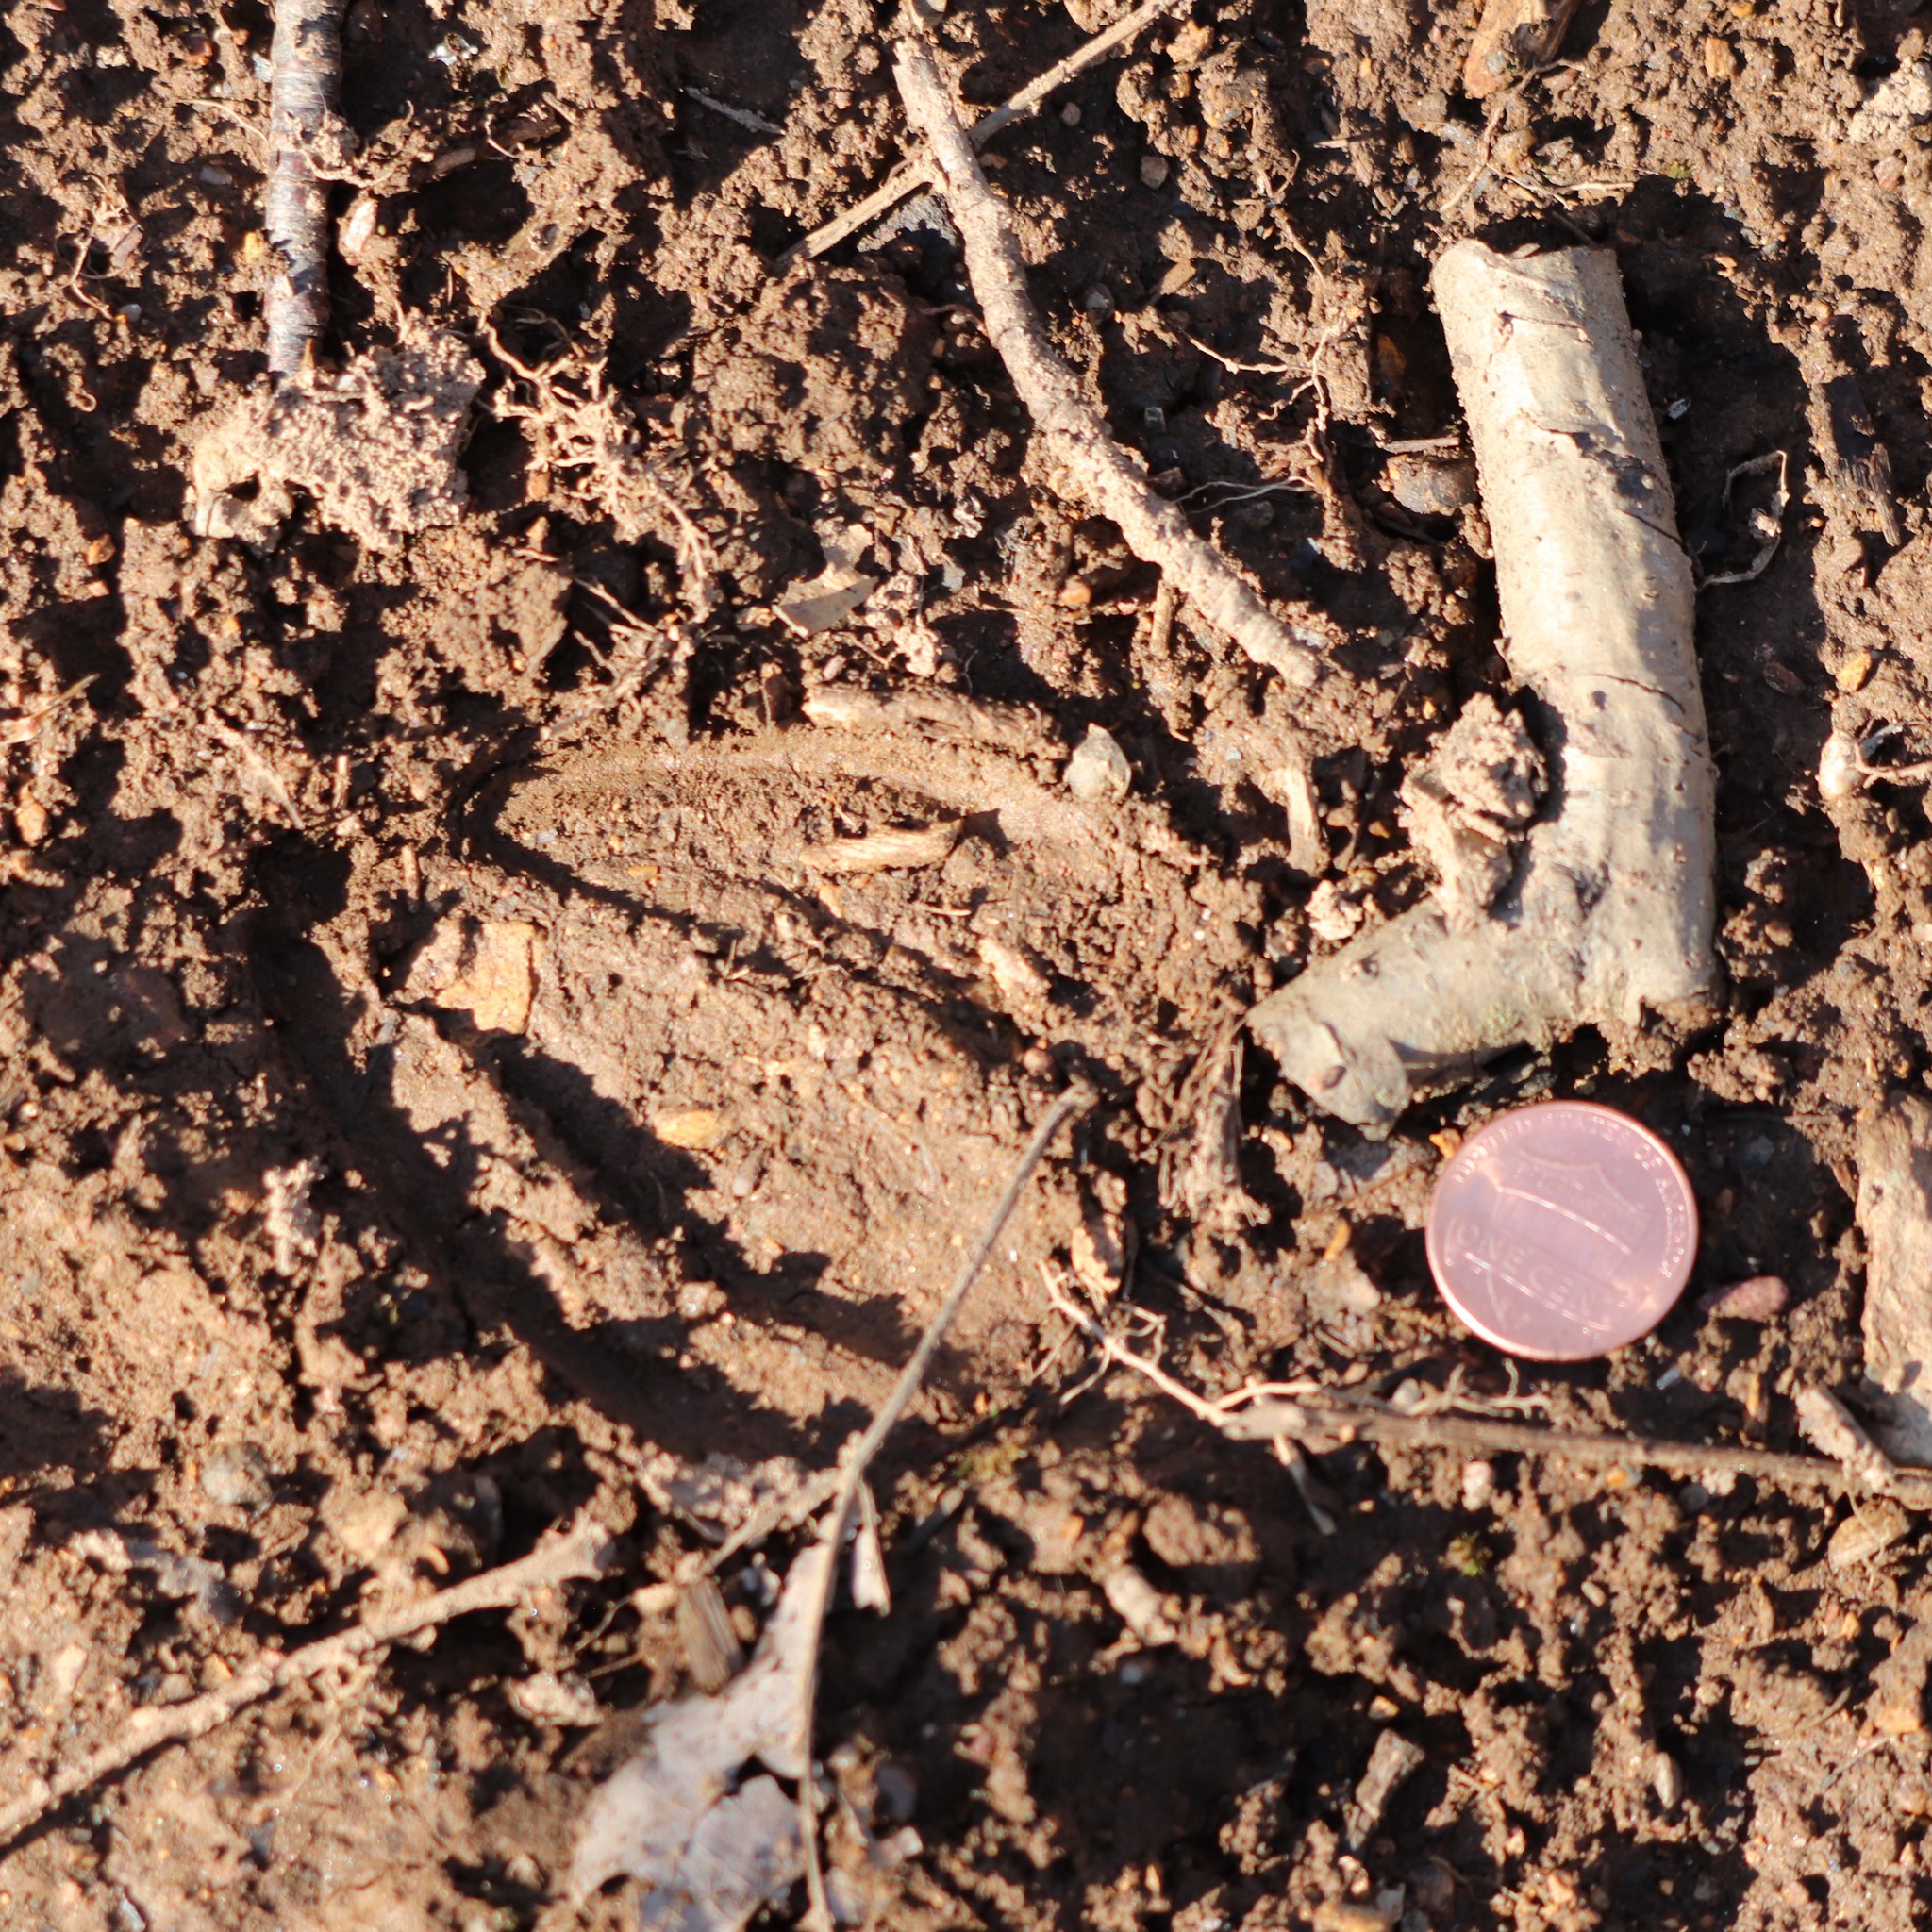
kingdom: Animalia
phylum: Chordata
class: Mammalia
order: Artiodactyla
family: Cervidae
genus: Odocoileus
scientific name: Odocoileus virginianus
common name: White-tailed deer
